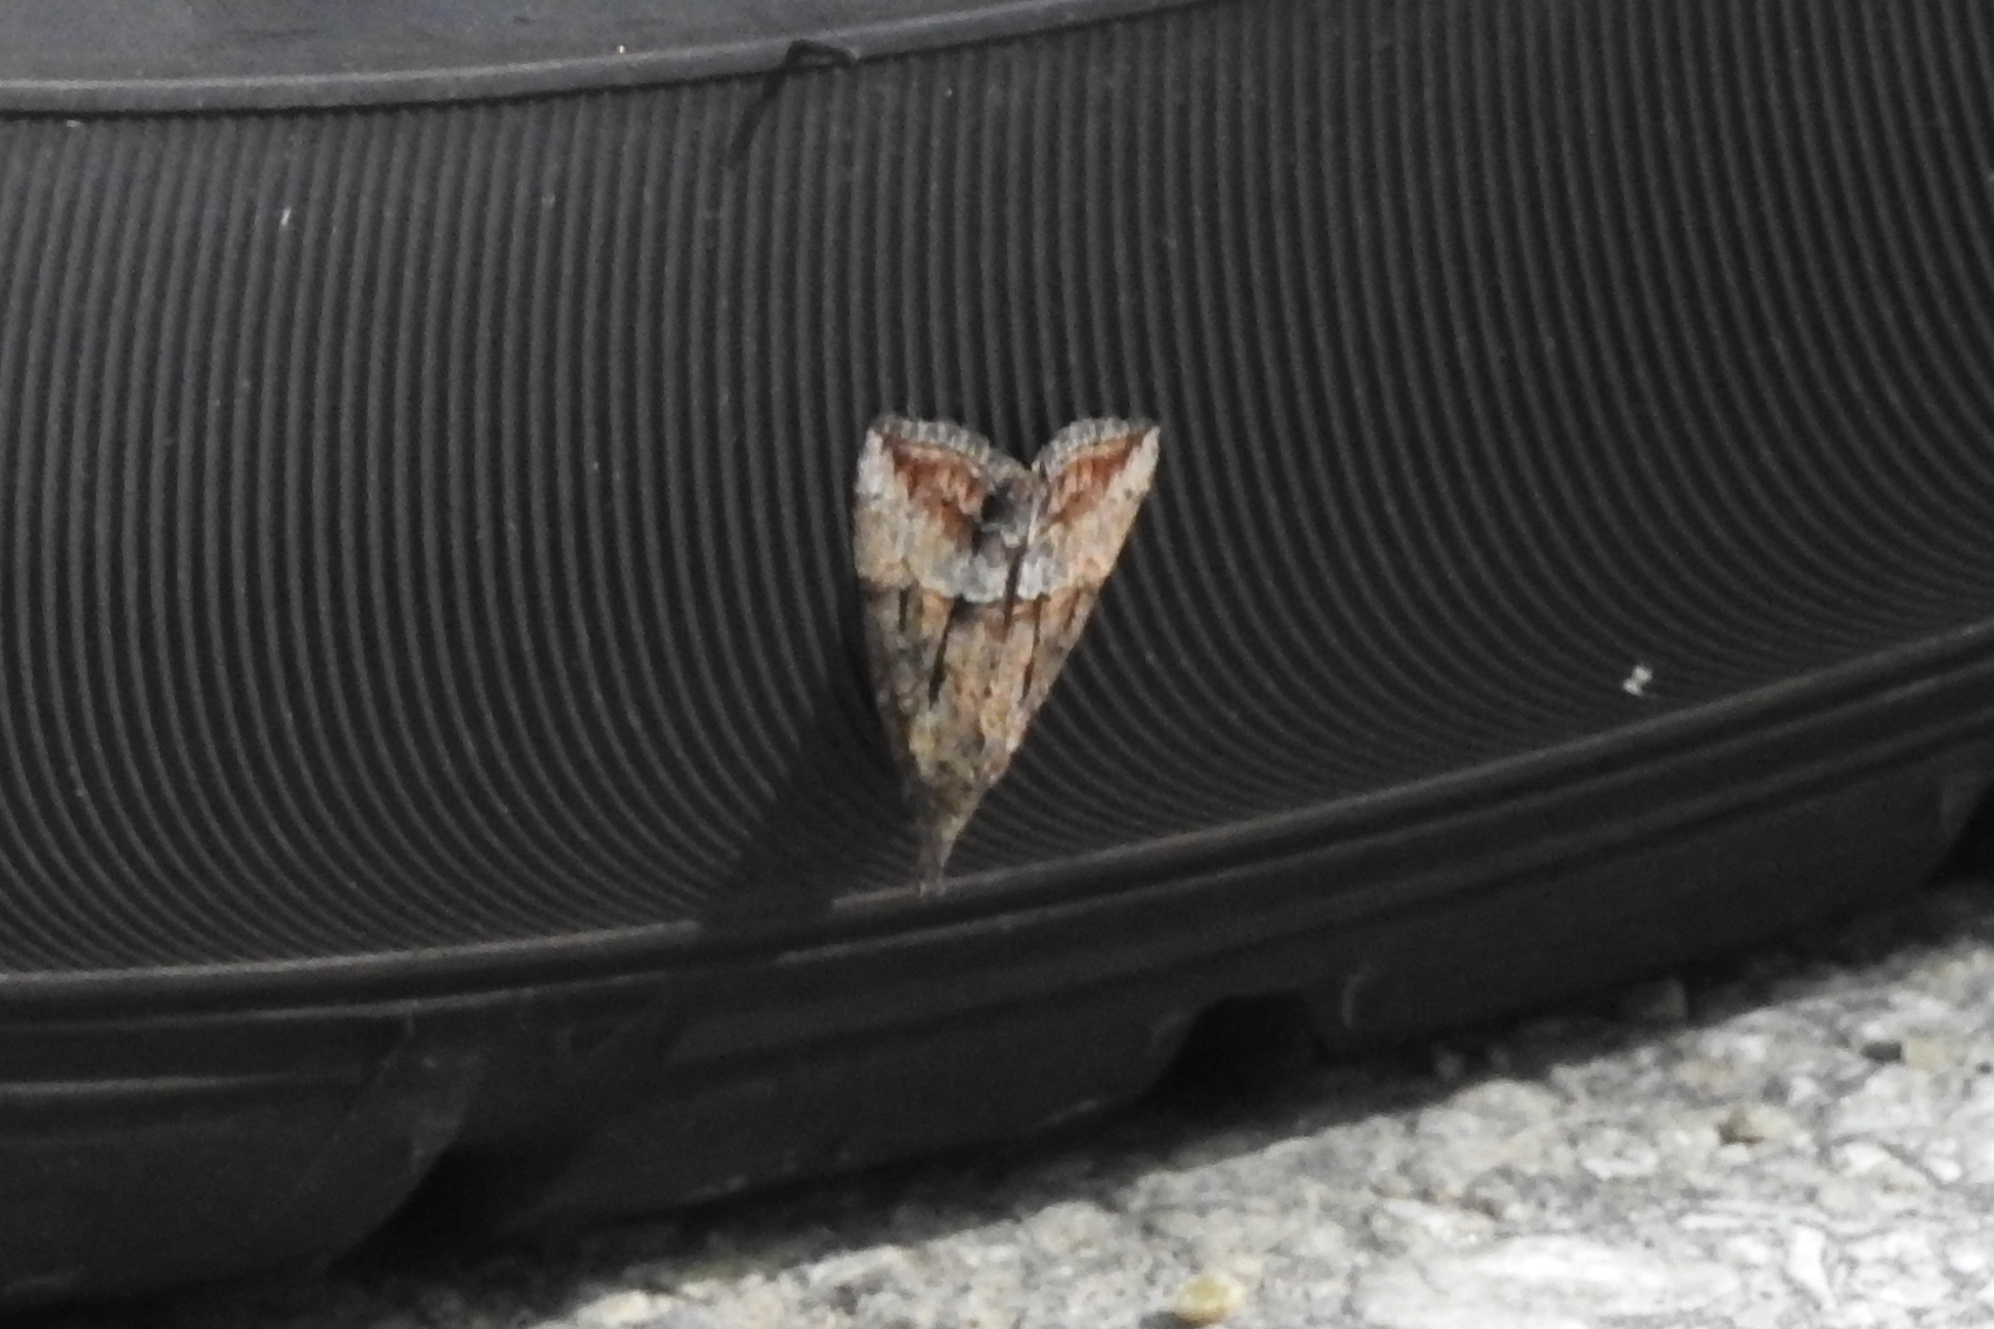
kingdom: Animalia
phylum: Arthropoda
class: Insecta
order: Lepidoptera
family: Erebidae
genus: Hypena
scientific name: Hypena scabra
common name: Green cloverworm
